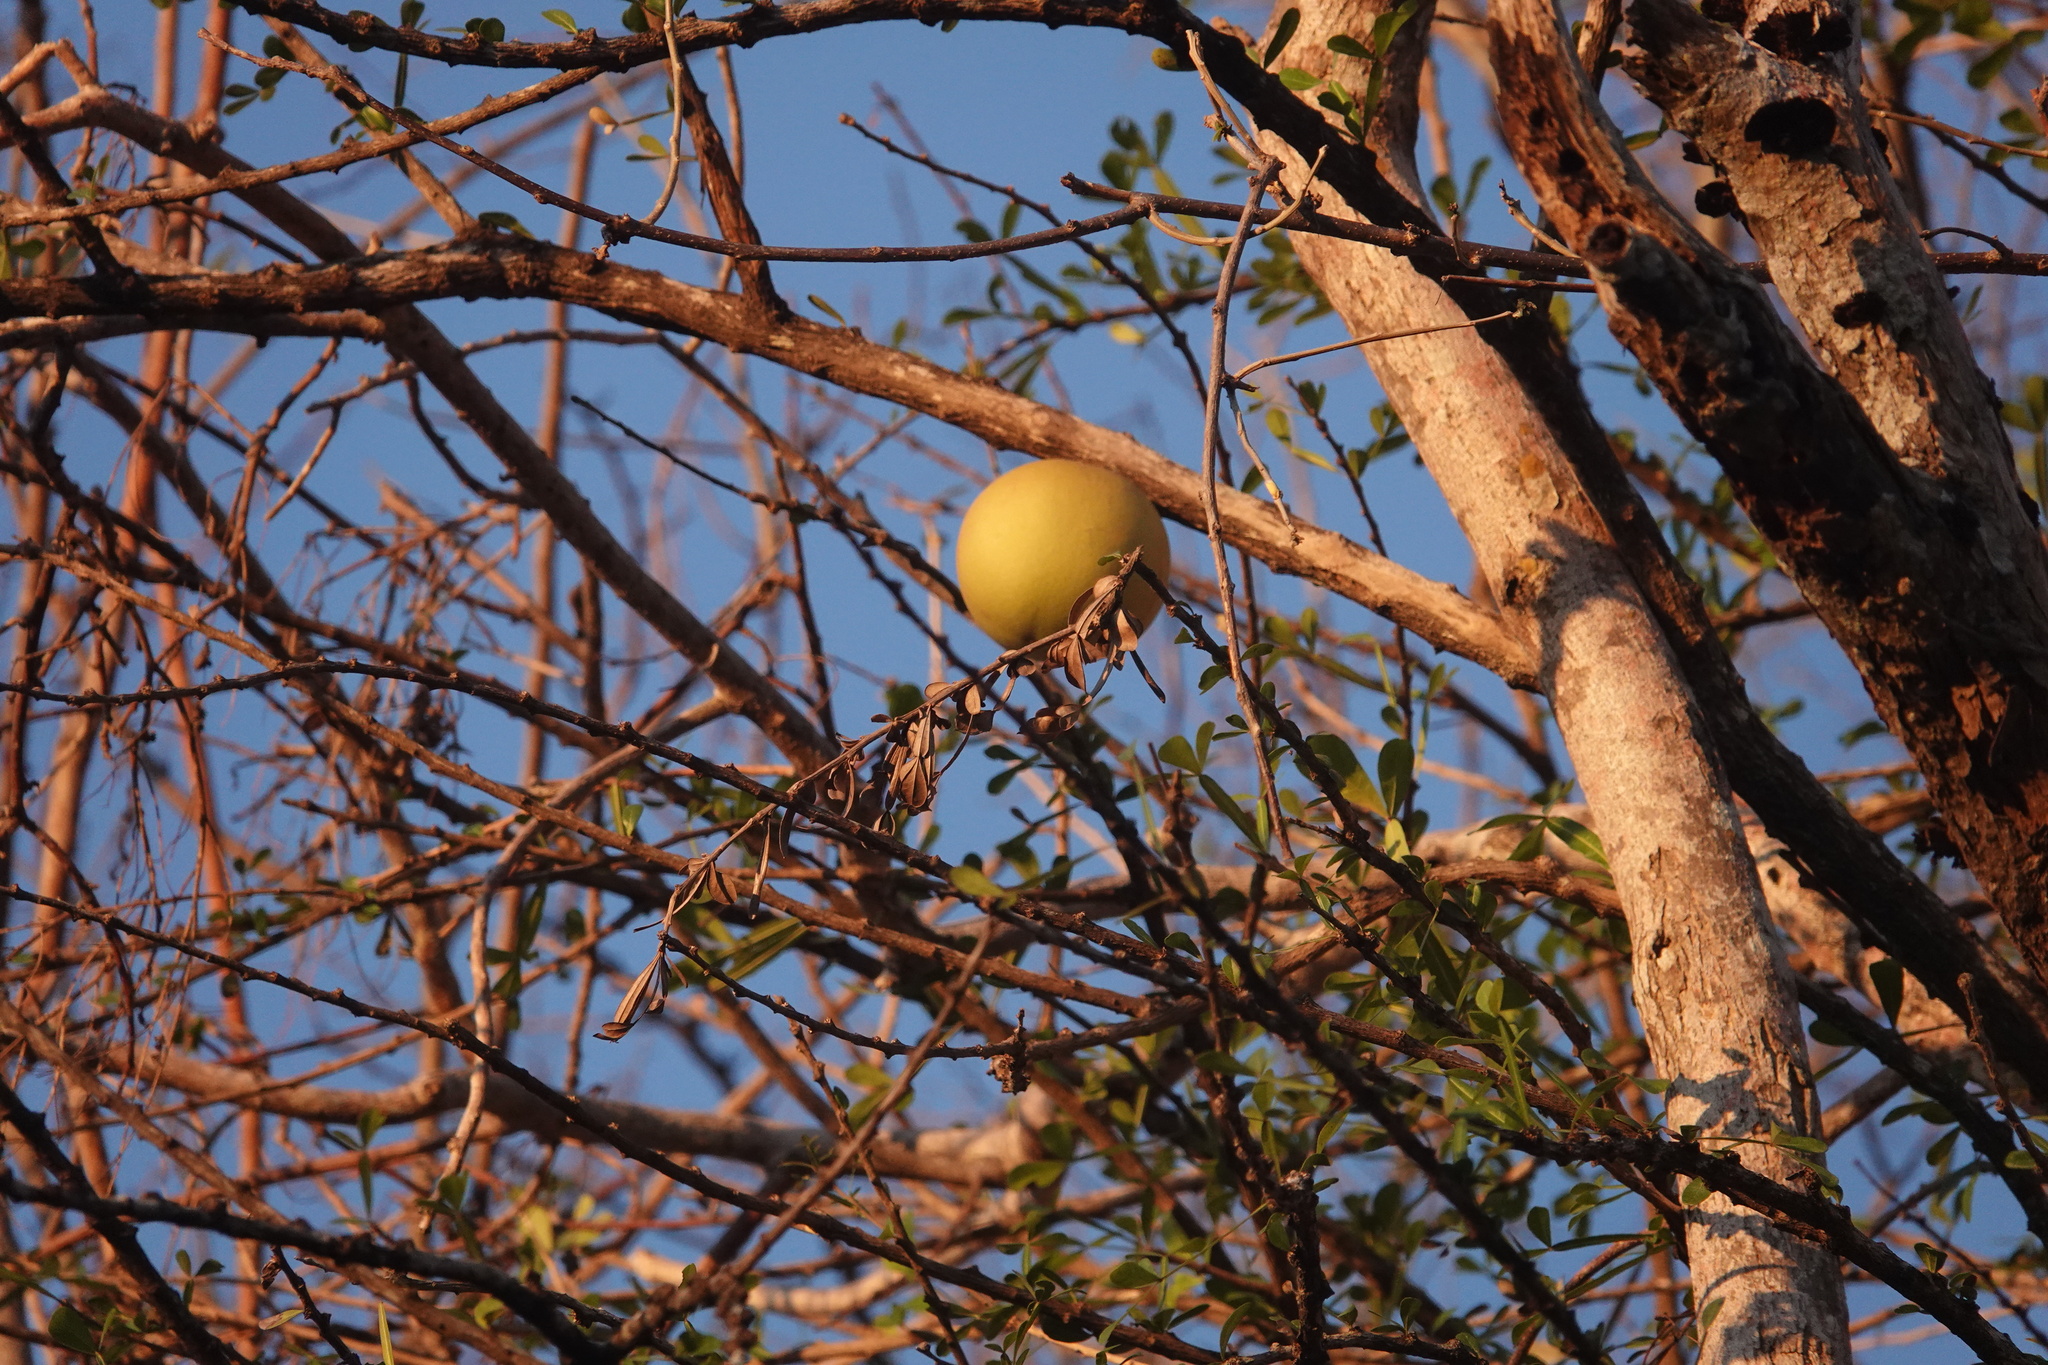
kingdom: Plantae
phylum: Tracheophyta
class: Magnoliopsida
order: Lamiales
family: Bignoniaceae
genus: Crescentia
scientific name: Crescentia alata
